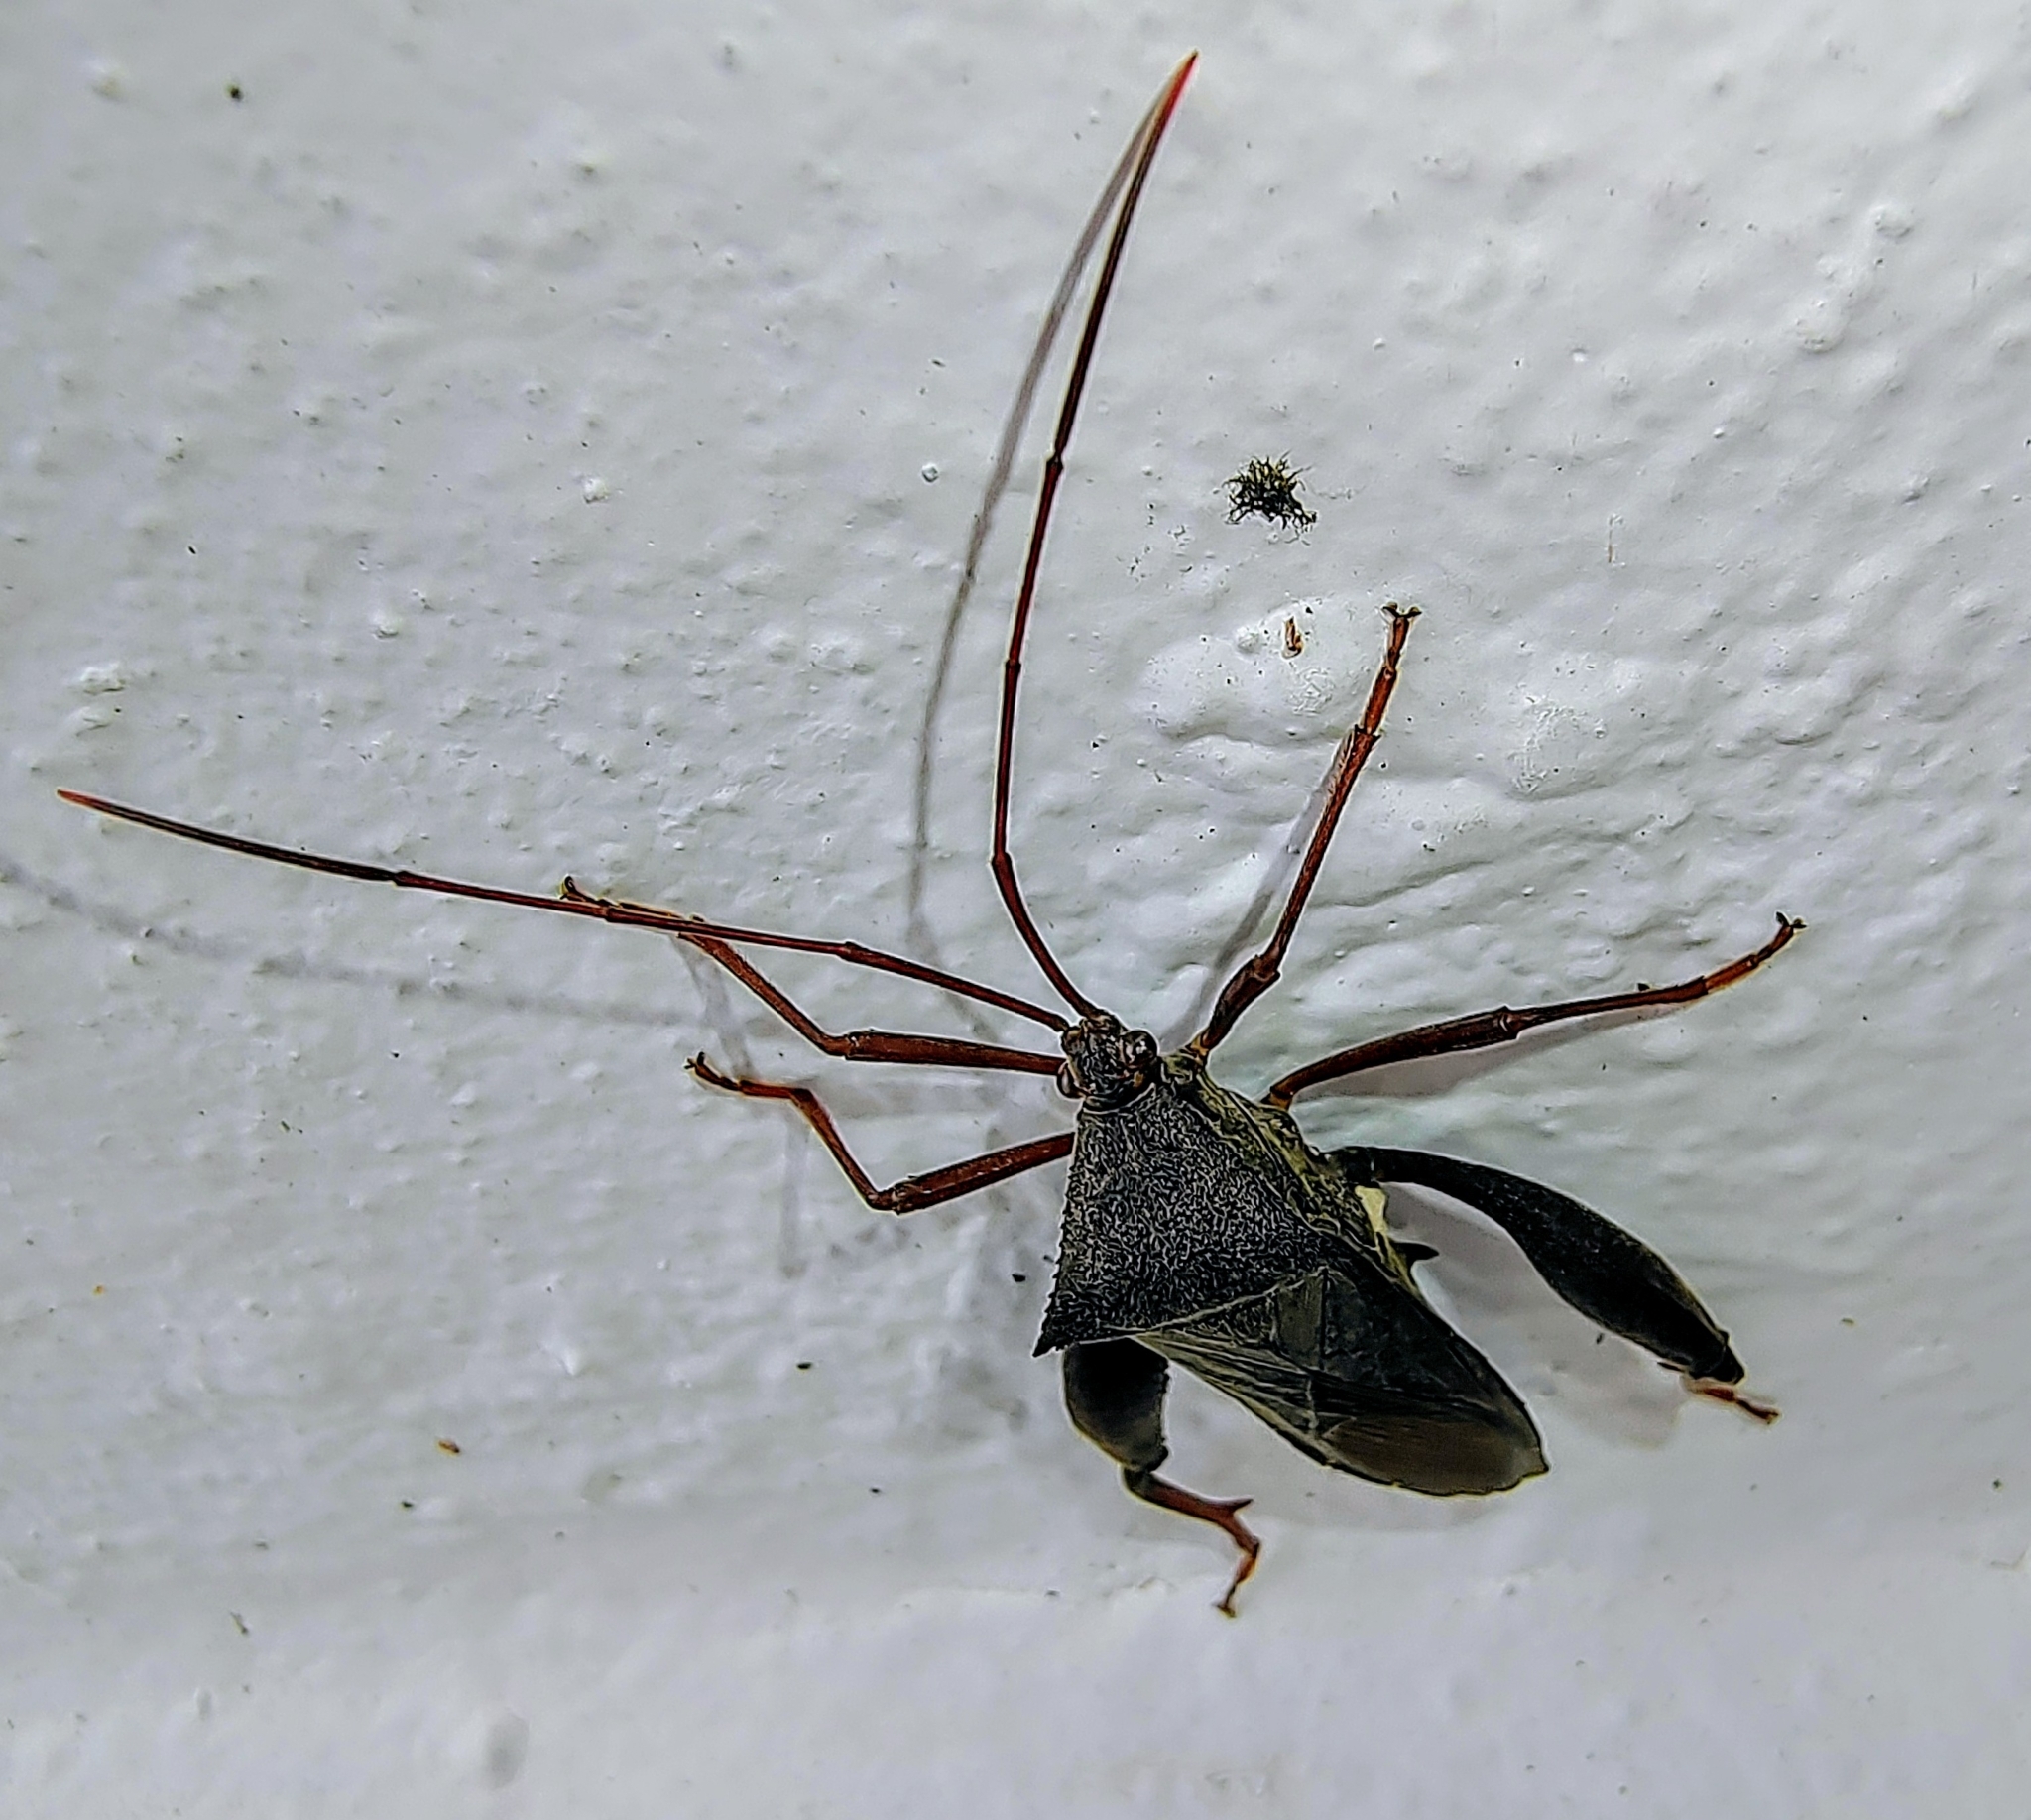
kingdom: Animalia
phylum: Arthropoda
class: Insecta
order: Hemiptera
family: Coreidae
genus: Mictis
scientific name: Mictis longicornis
